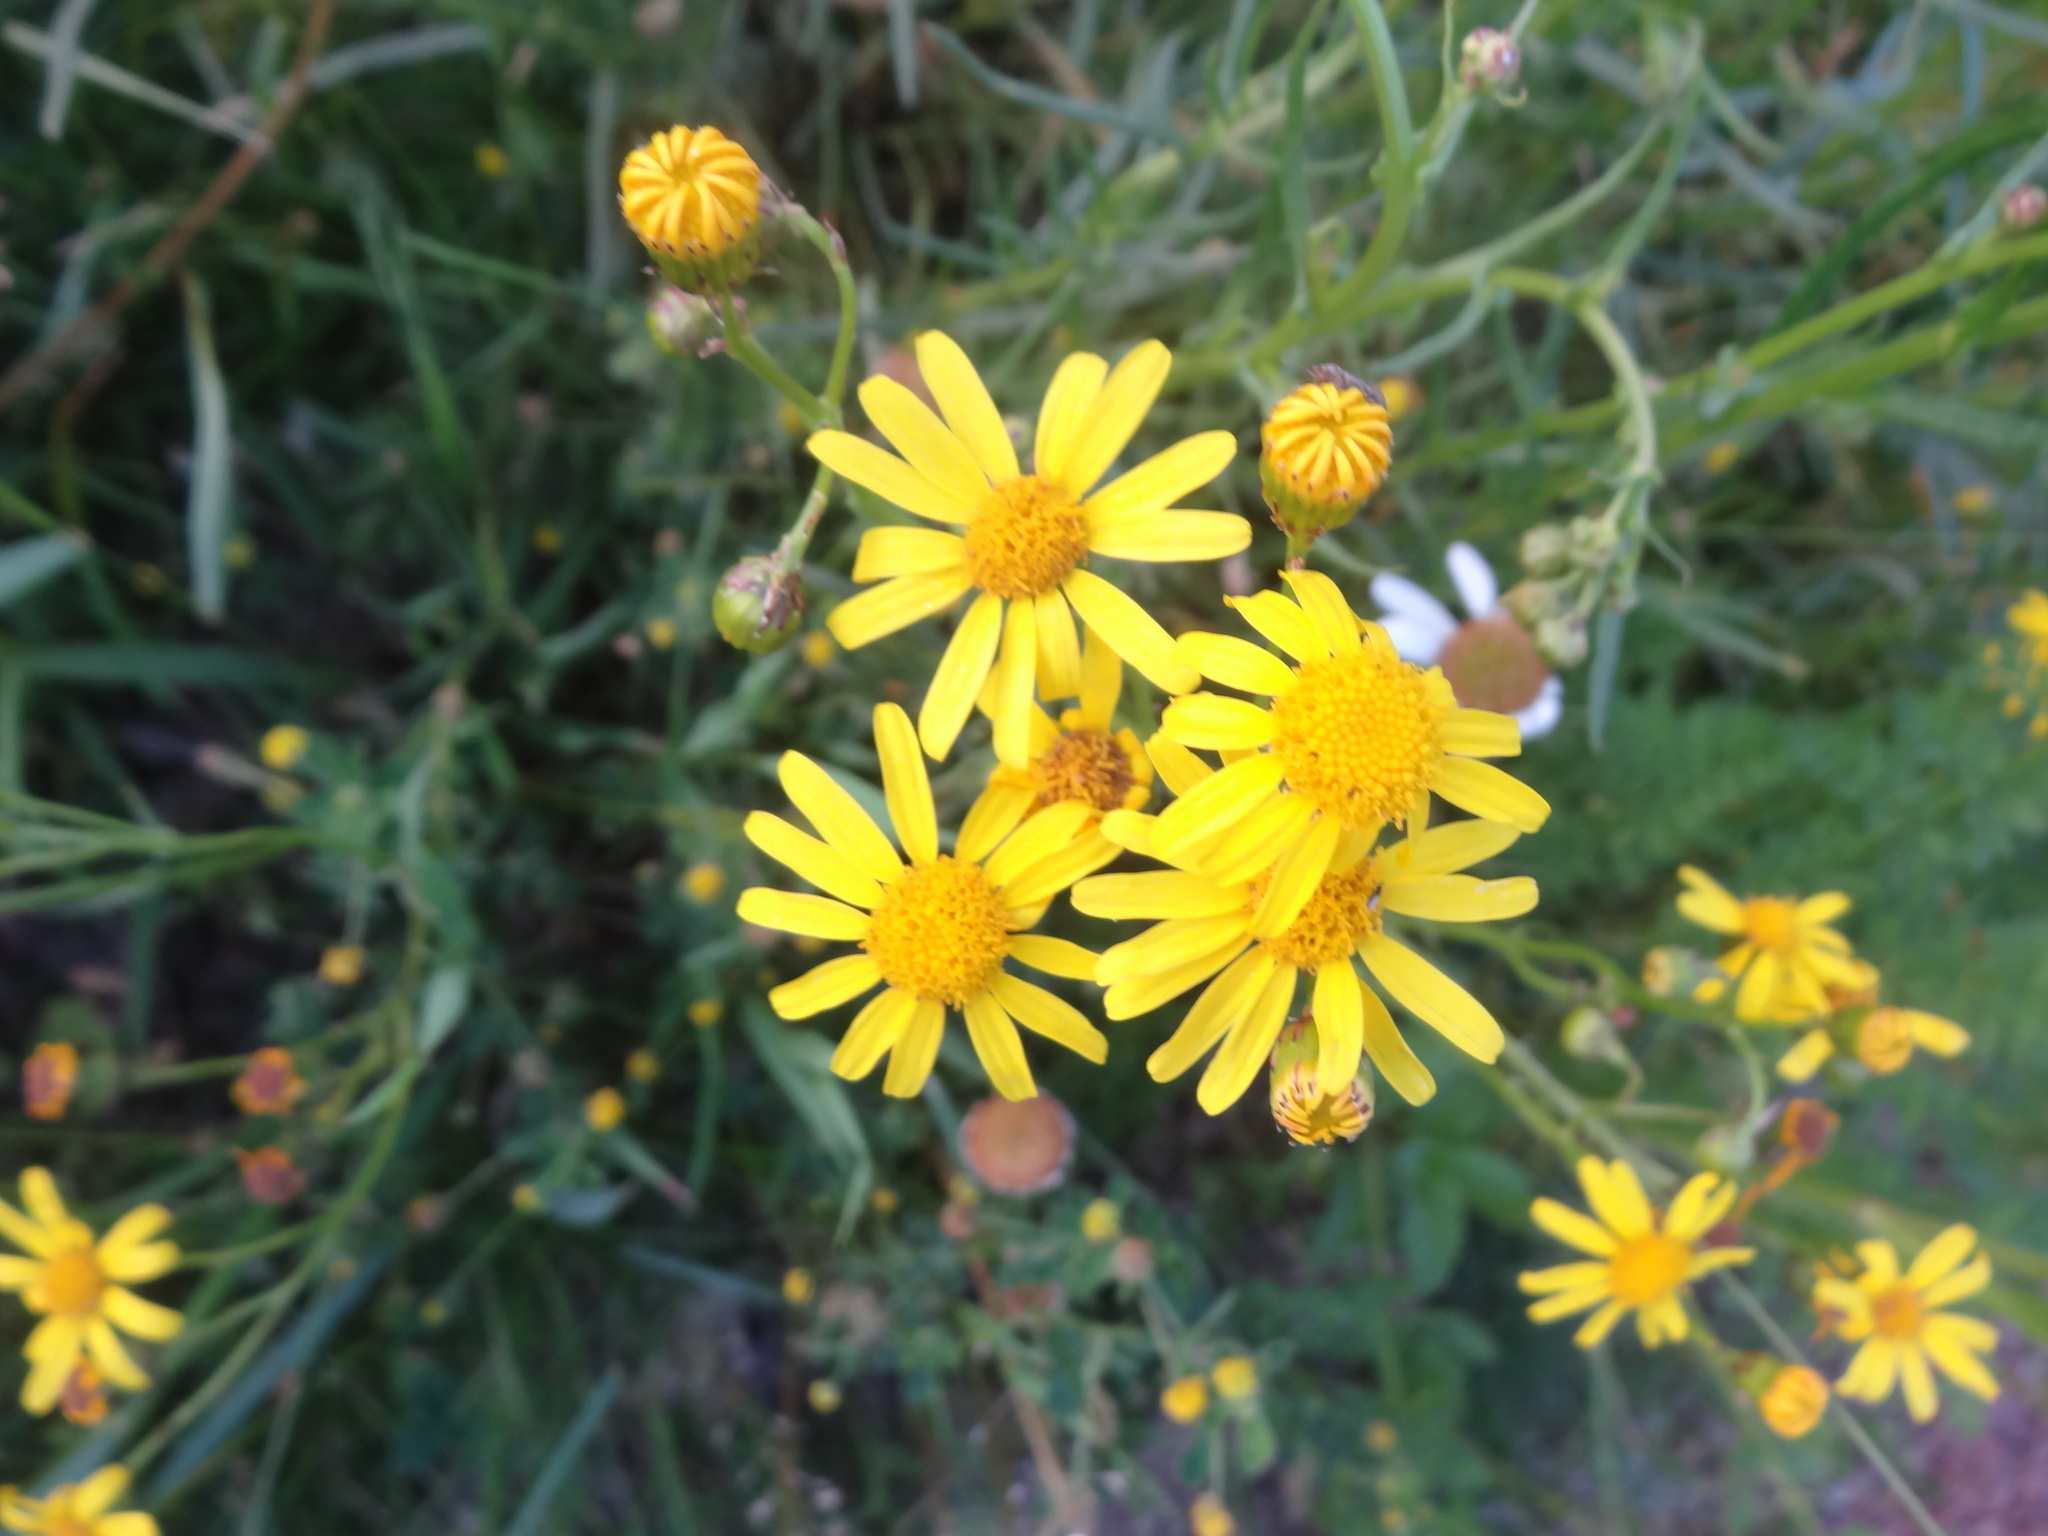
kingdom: Plantae
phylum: Tracheophyta
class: Magnoliopsida
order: Asterales
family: Asteraceae
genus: Senecio
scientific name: Senecio inaequidens
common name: Narrow-leaved ragwort
